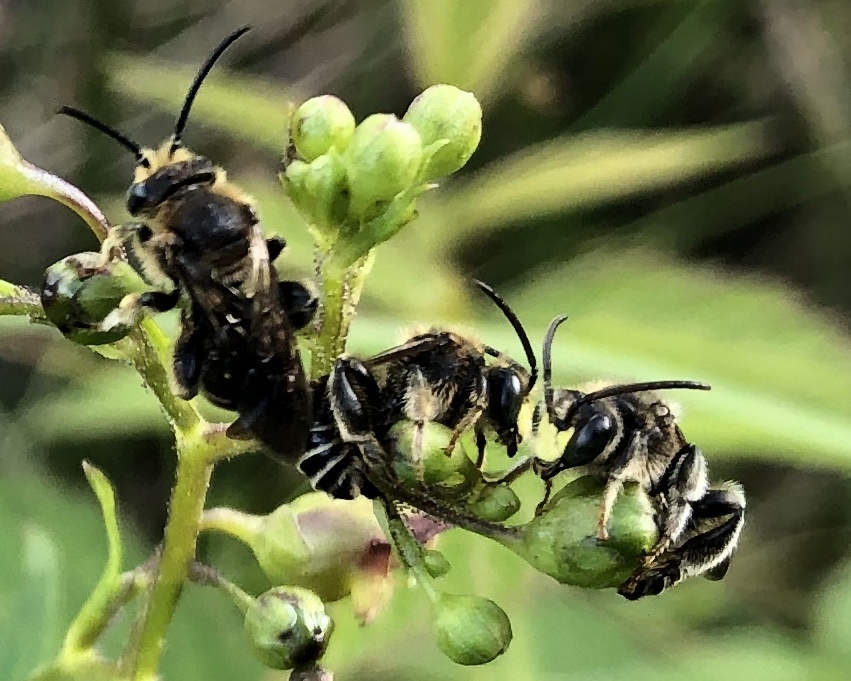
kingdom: Animalia
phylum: Arthropoda
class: Insecta
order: Hymenoptera
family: Melittidae
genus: Macropis
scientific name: Macropis europaea
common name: Yellow loosestrife bee
